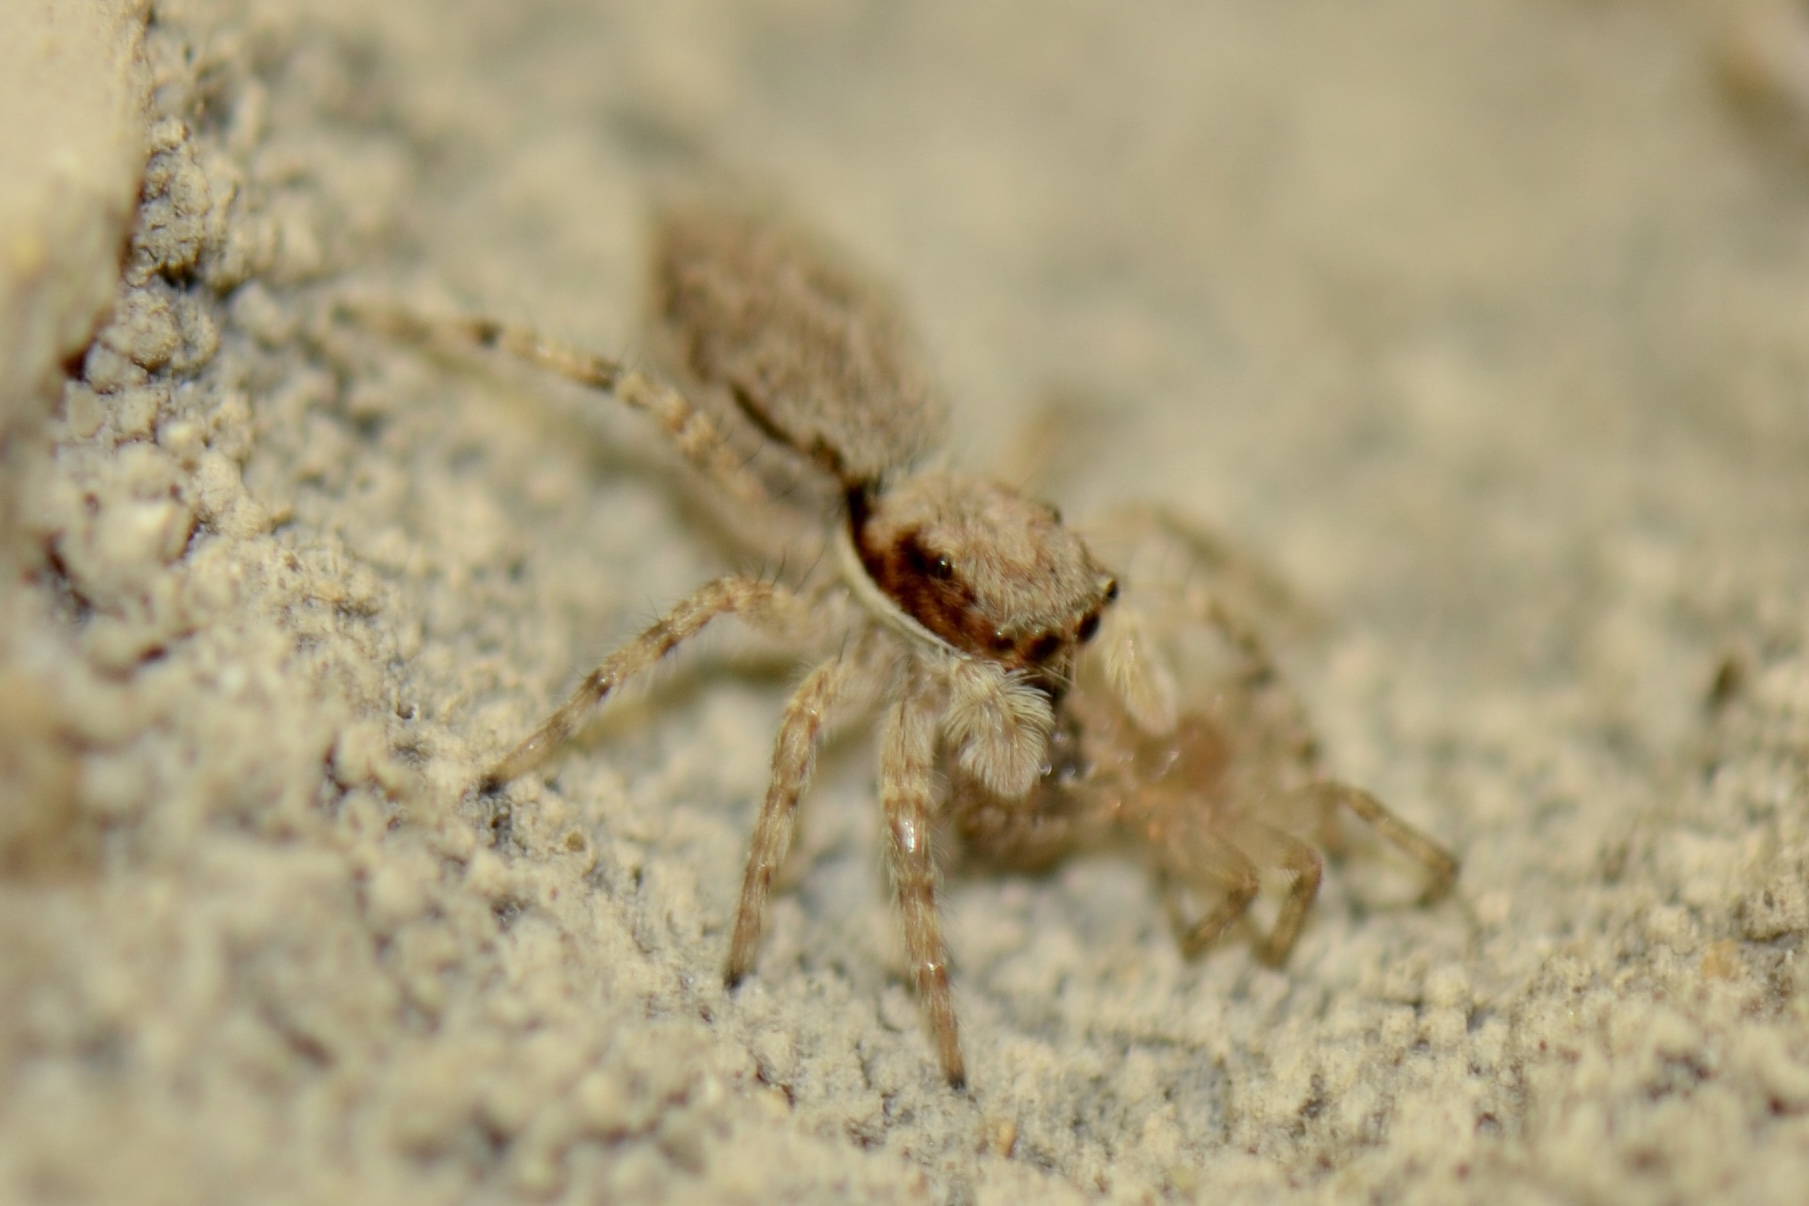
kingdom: Animalia
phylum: Arthropoda
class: Arachnida
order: Araneae
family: Salticidae
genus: Menemerus
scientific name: Menemerus bivittatus
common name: Gray wall jumper
